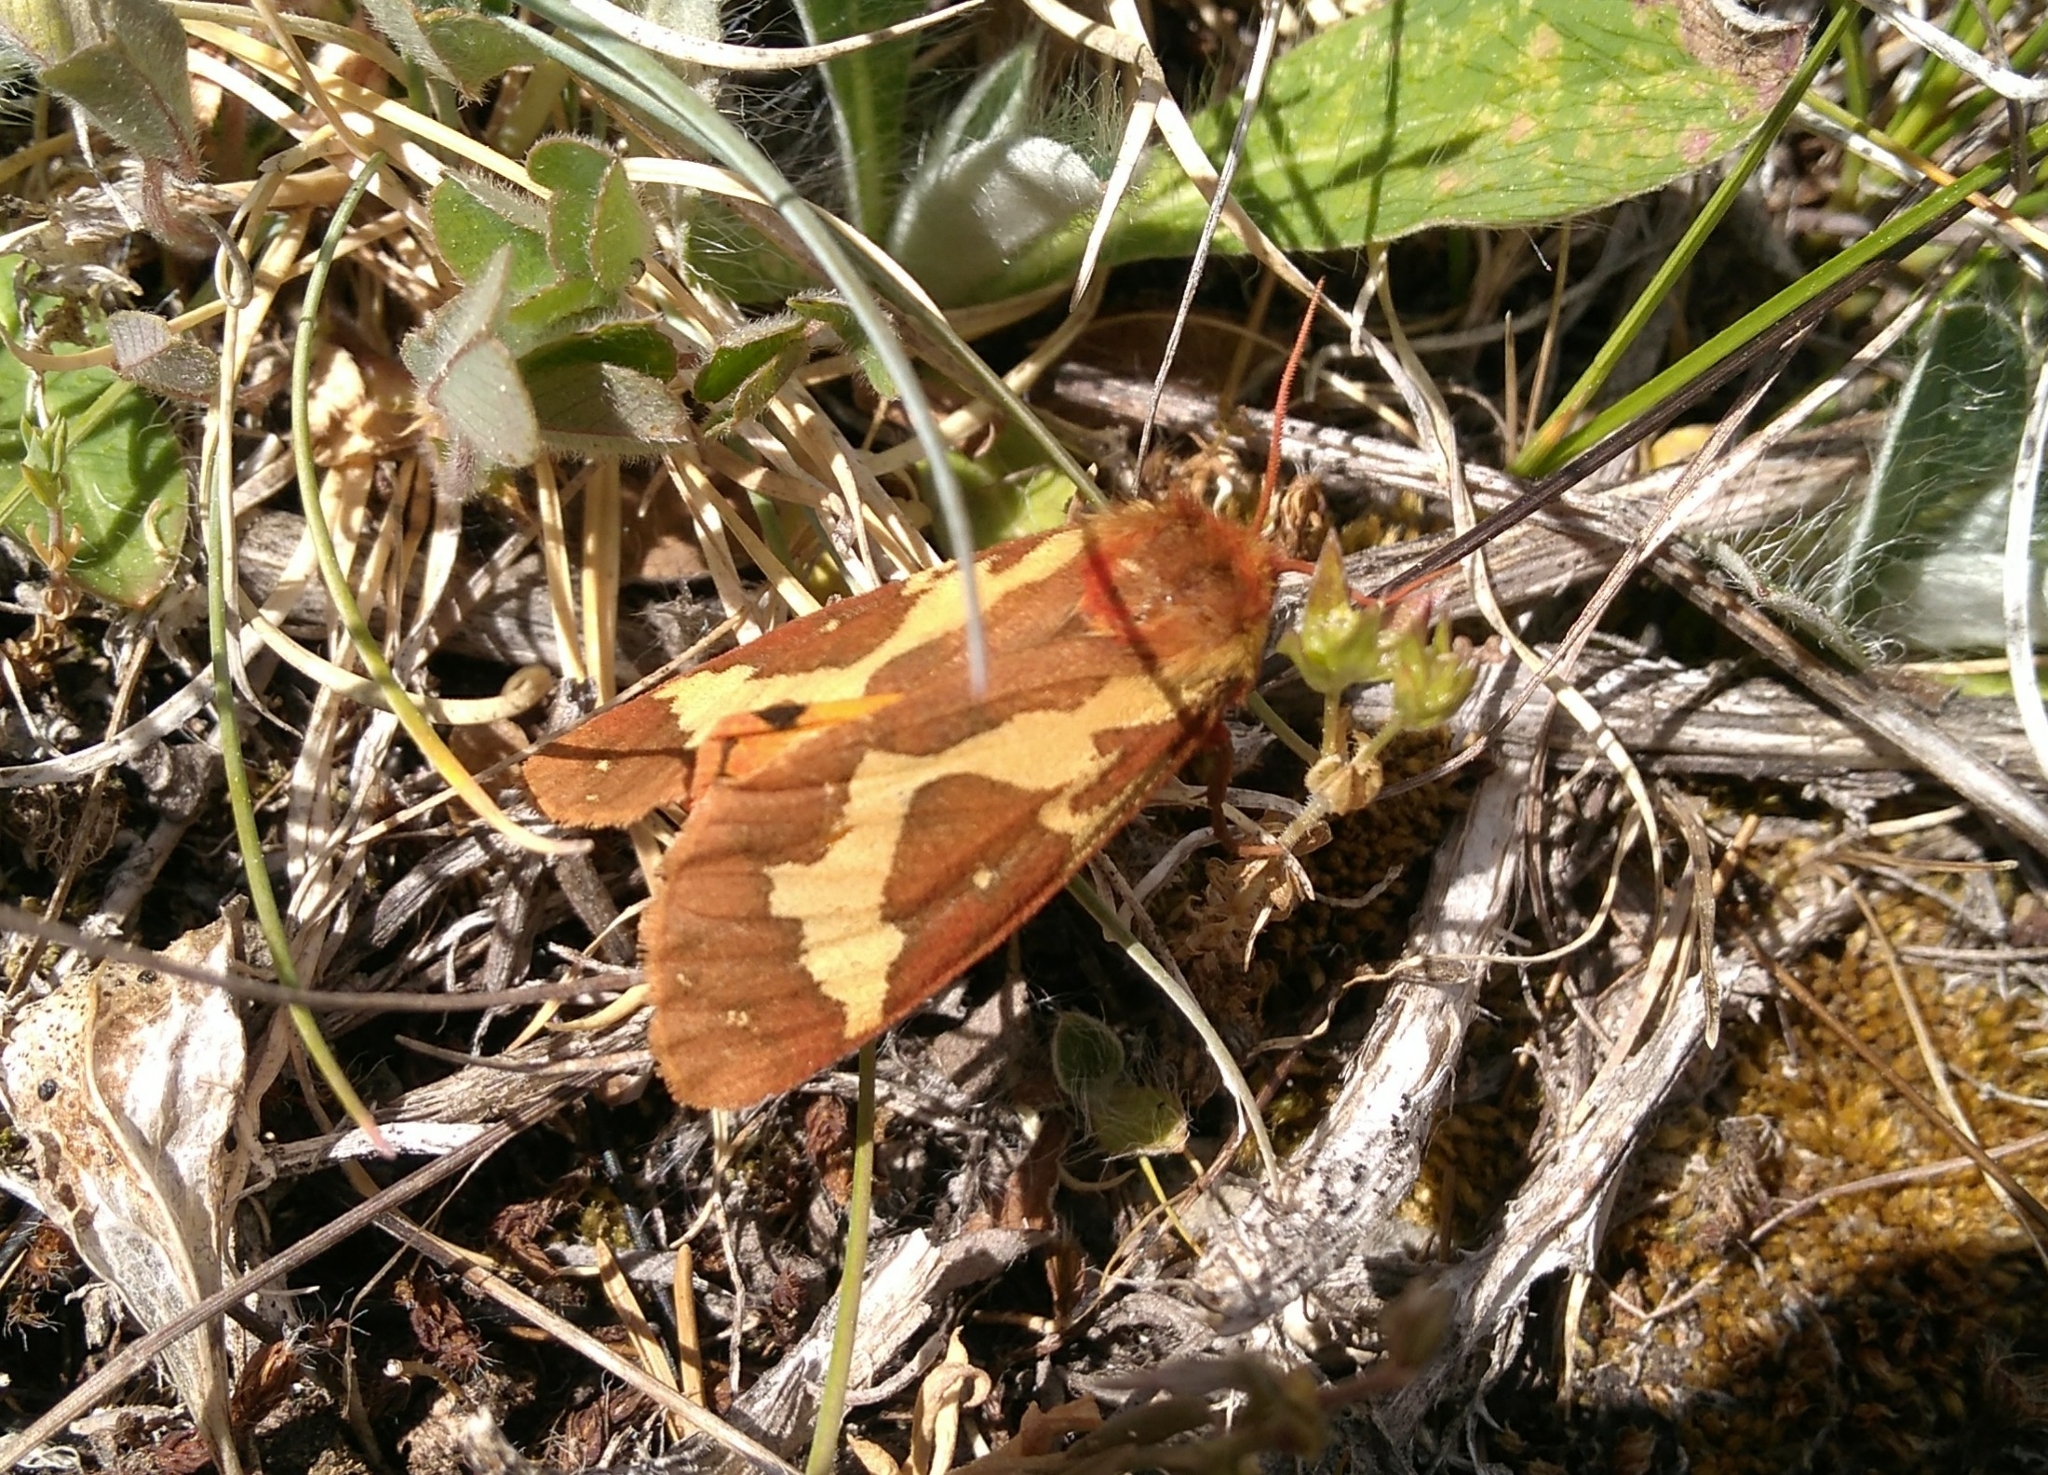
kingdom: Animalia
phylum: Arthropoda
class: Insecta
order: Lepidoptera
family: Erebidae
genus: Arctia
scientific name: Arctia dejeani
